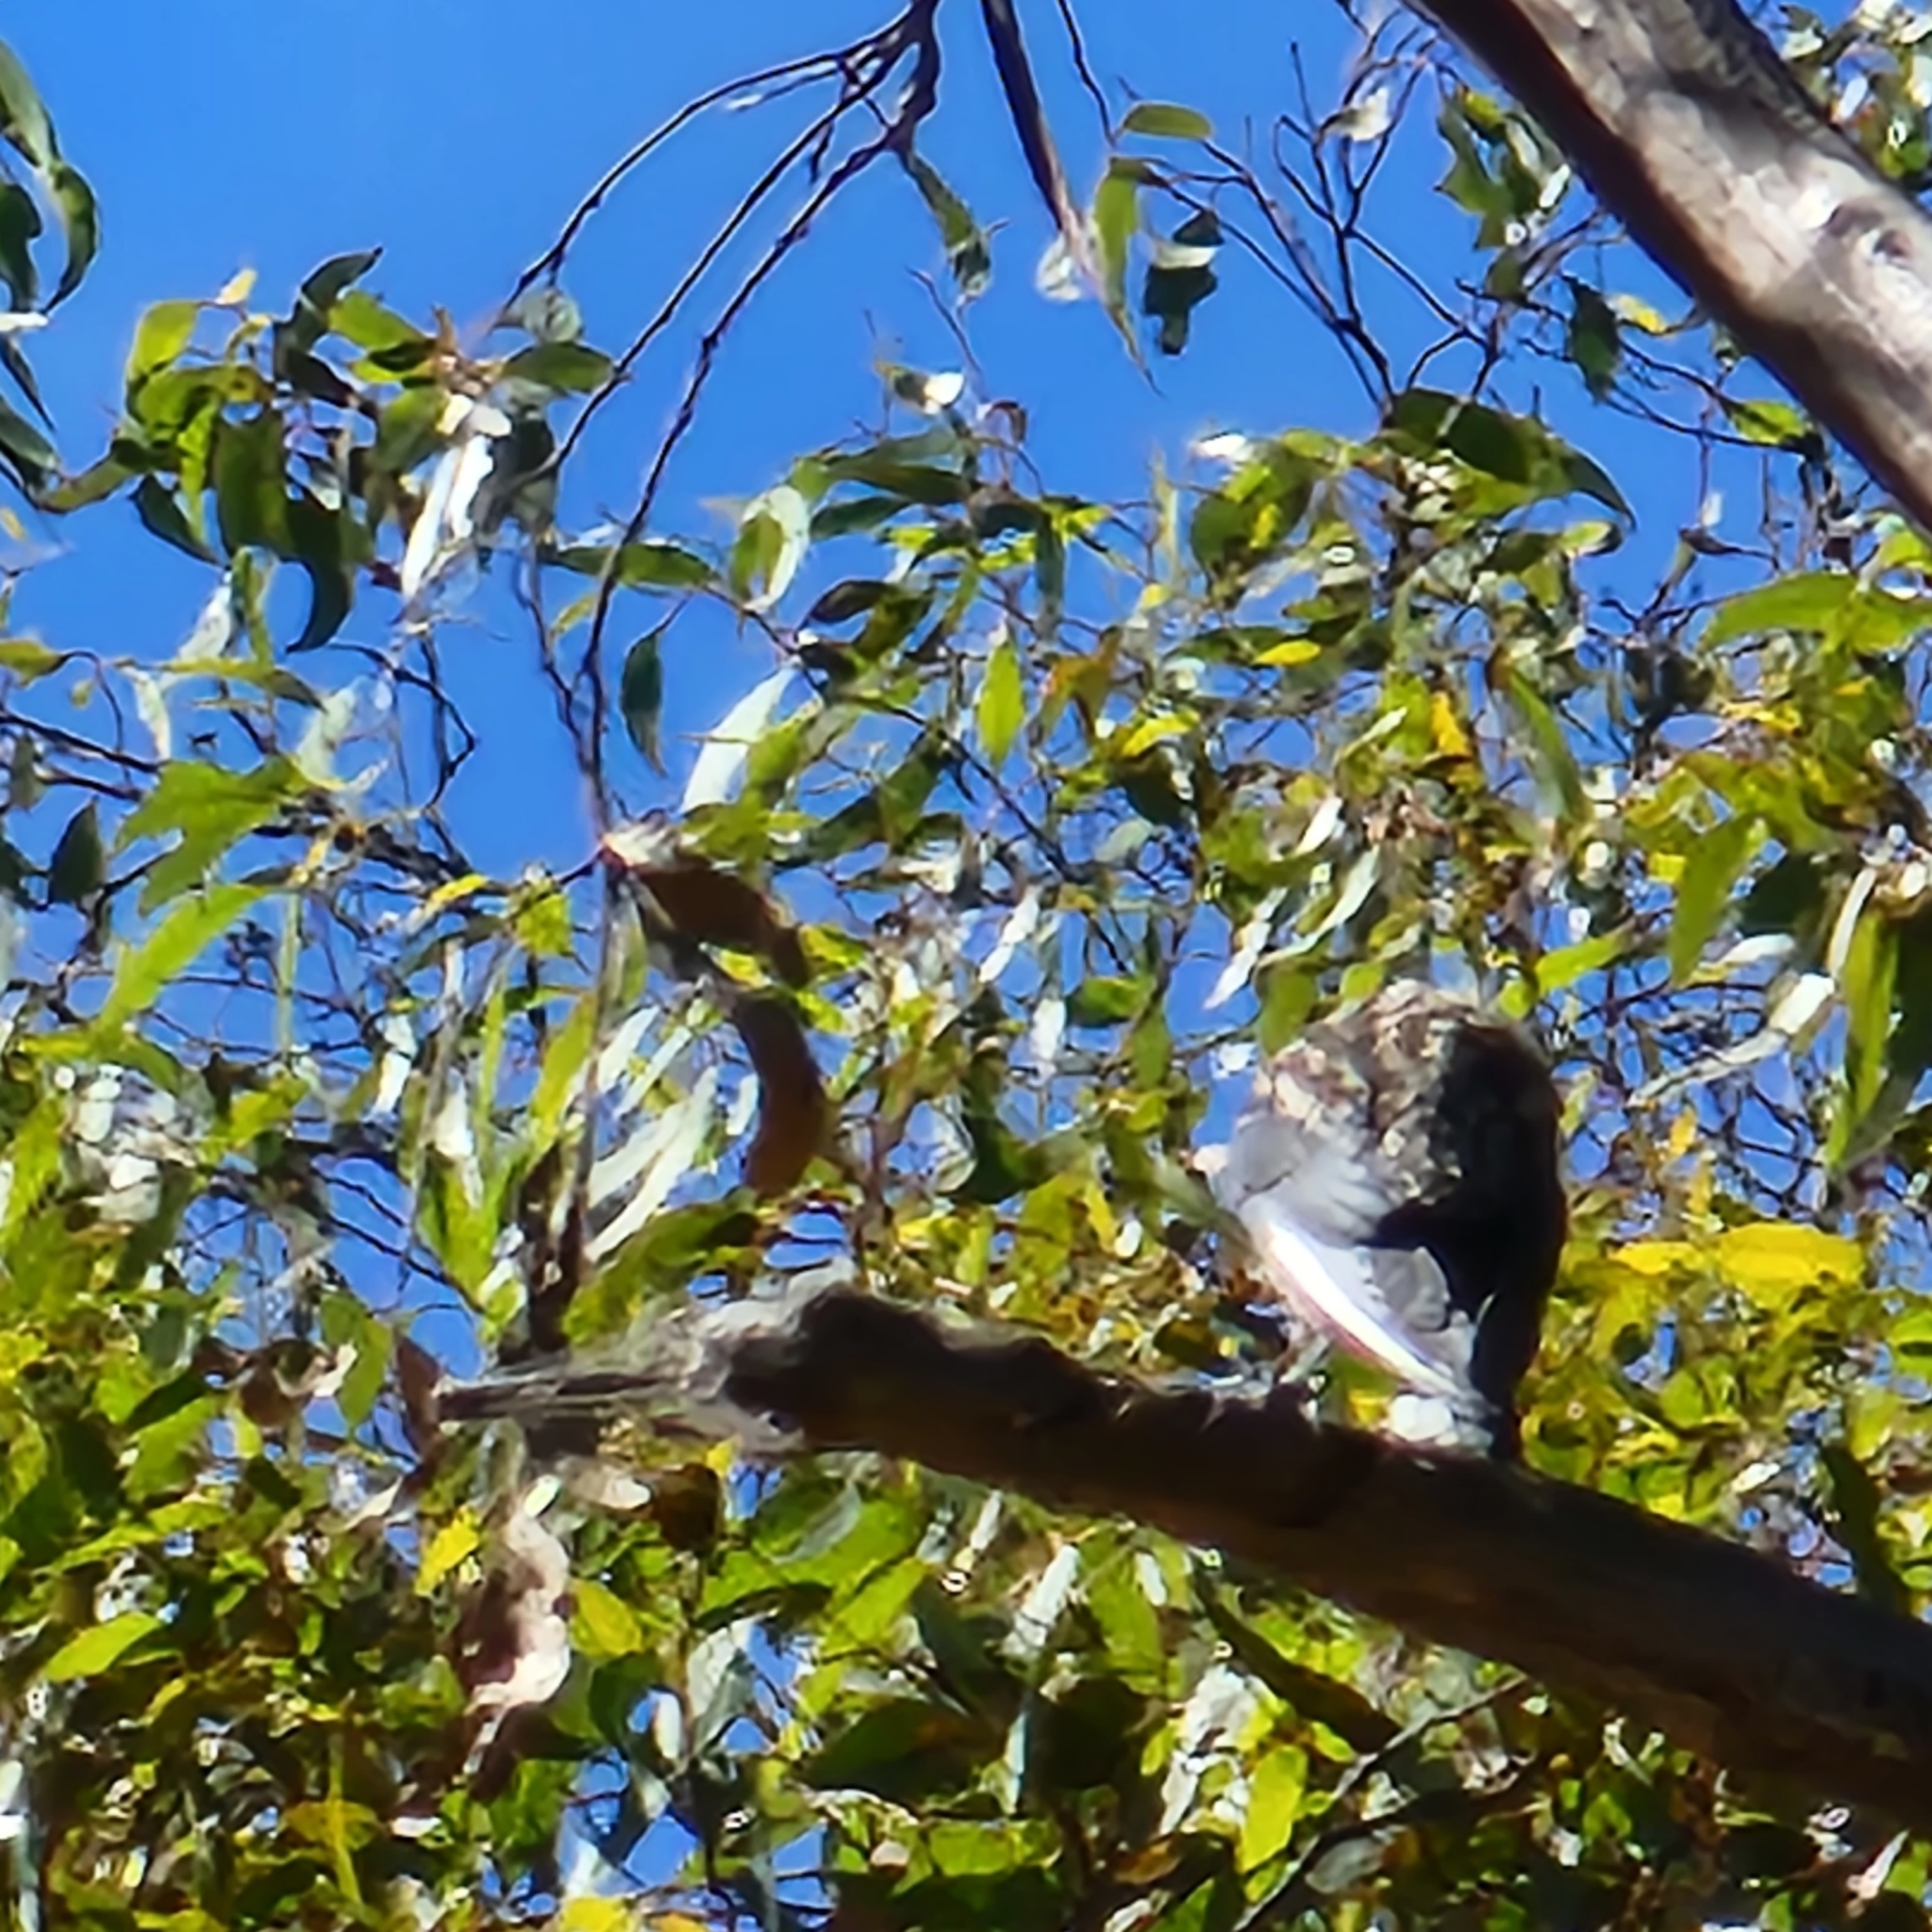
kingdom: Animalia
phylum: Chordata
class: Aves
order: Passeriformes
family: Artamidae
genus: Artamus
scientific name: Artamus cyanopterus
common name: Dusky woodswallow
